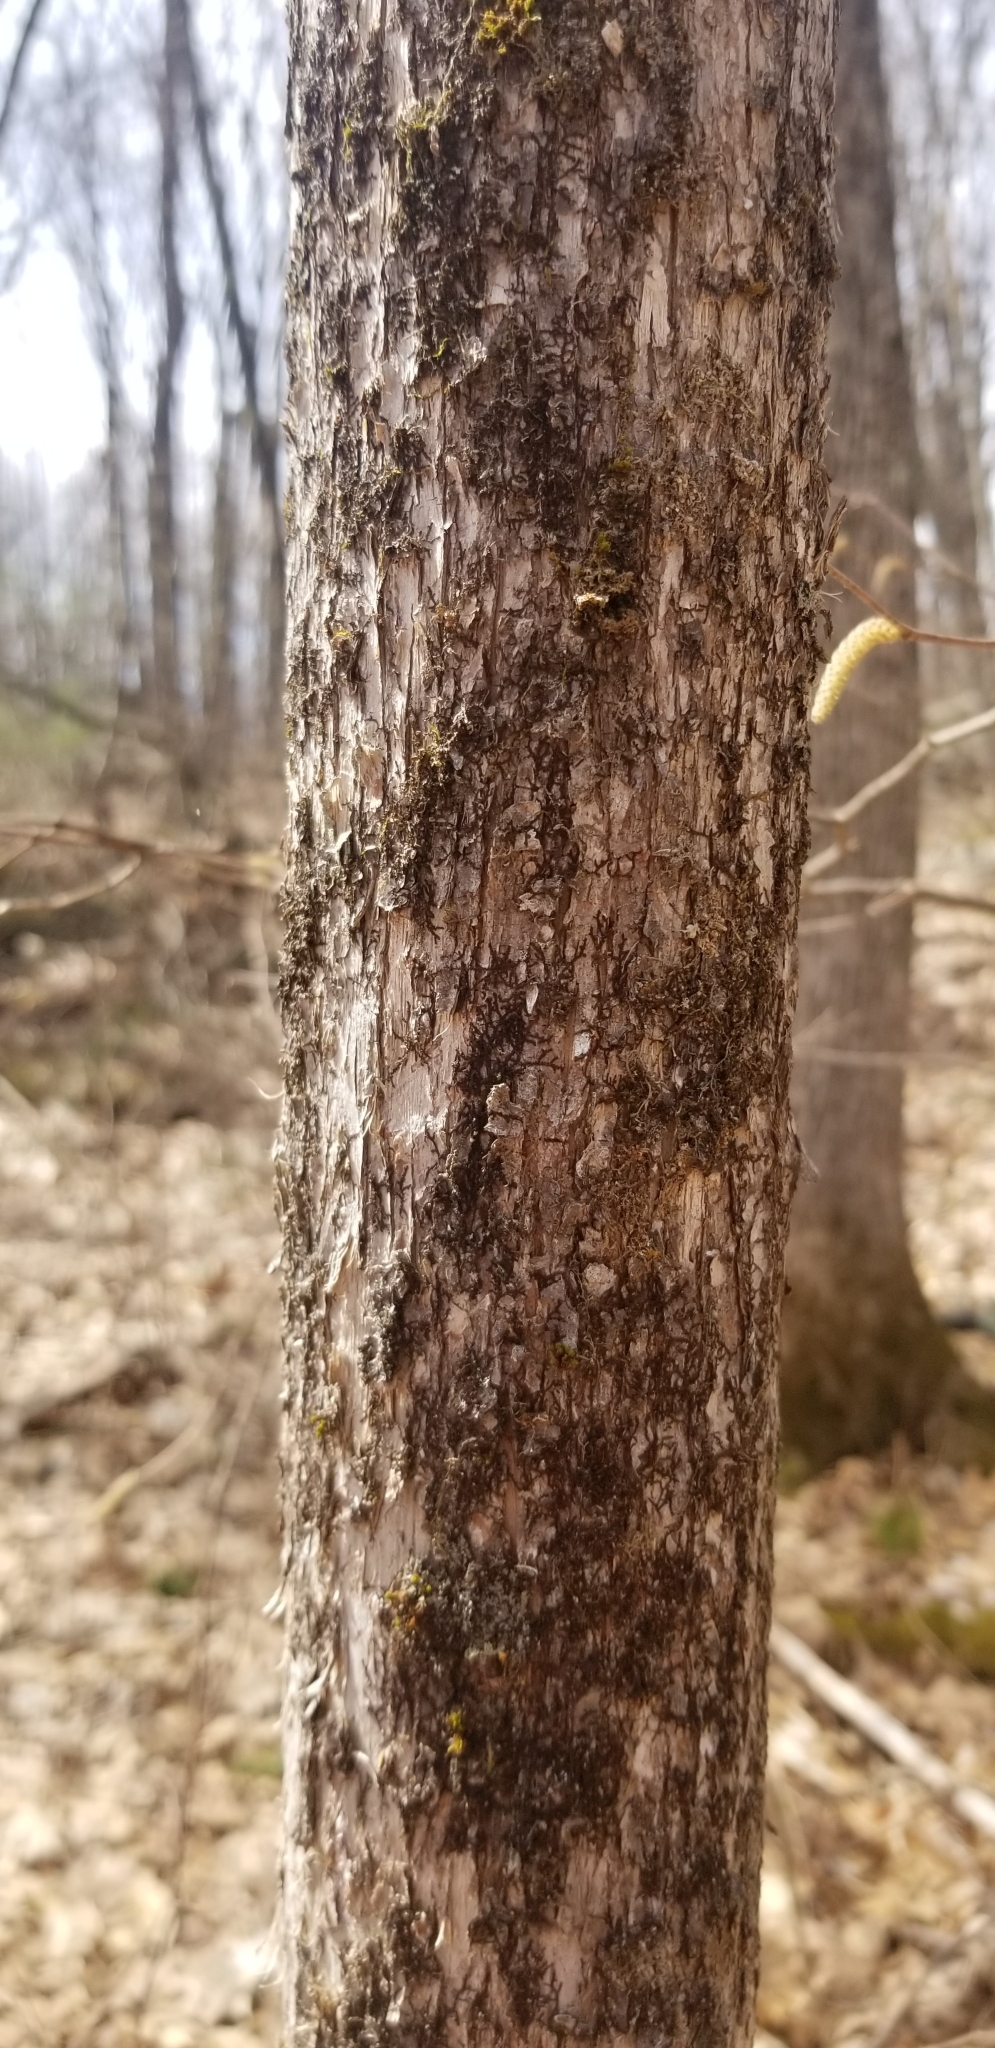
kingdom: Plantae
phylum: Tracheophyta
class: Magnoliopsida
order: Fagales
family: Betulaceae
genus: Ostrya
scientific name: Ostrya virginiana
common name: Ironwood
